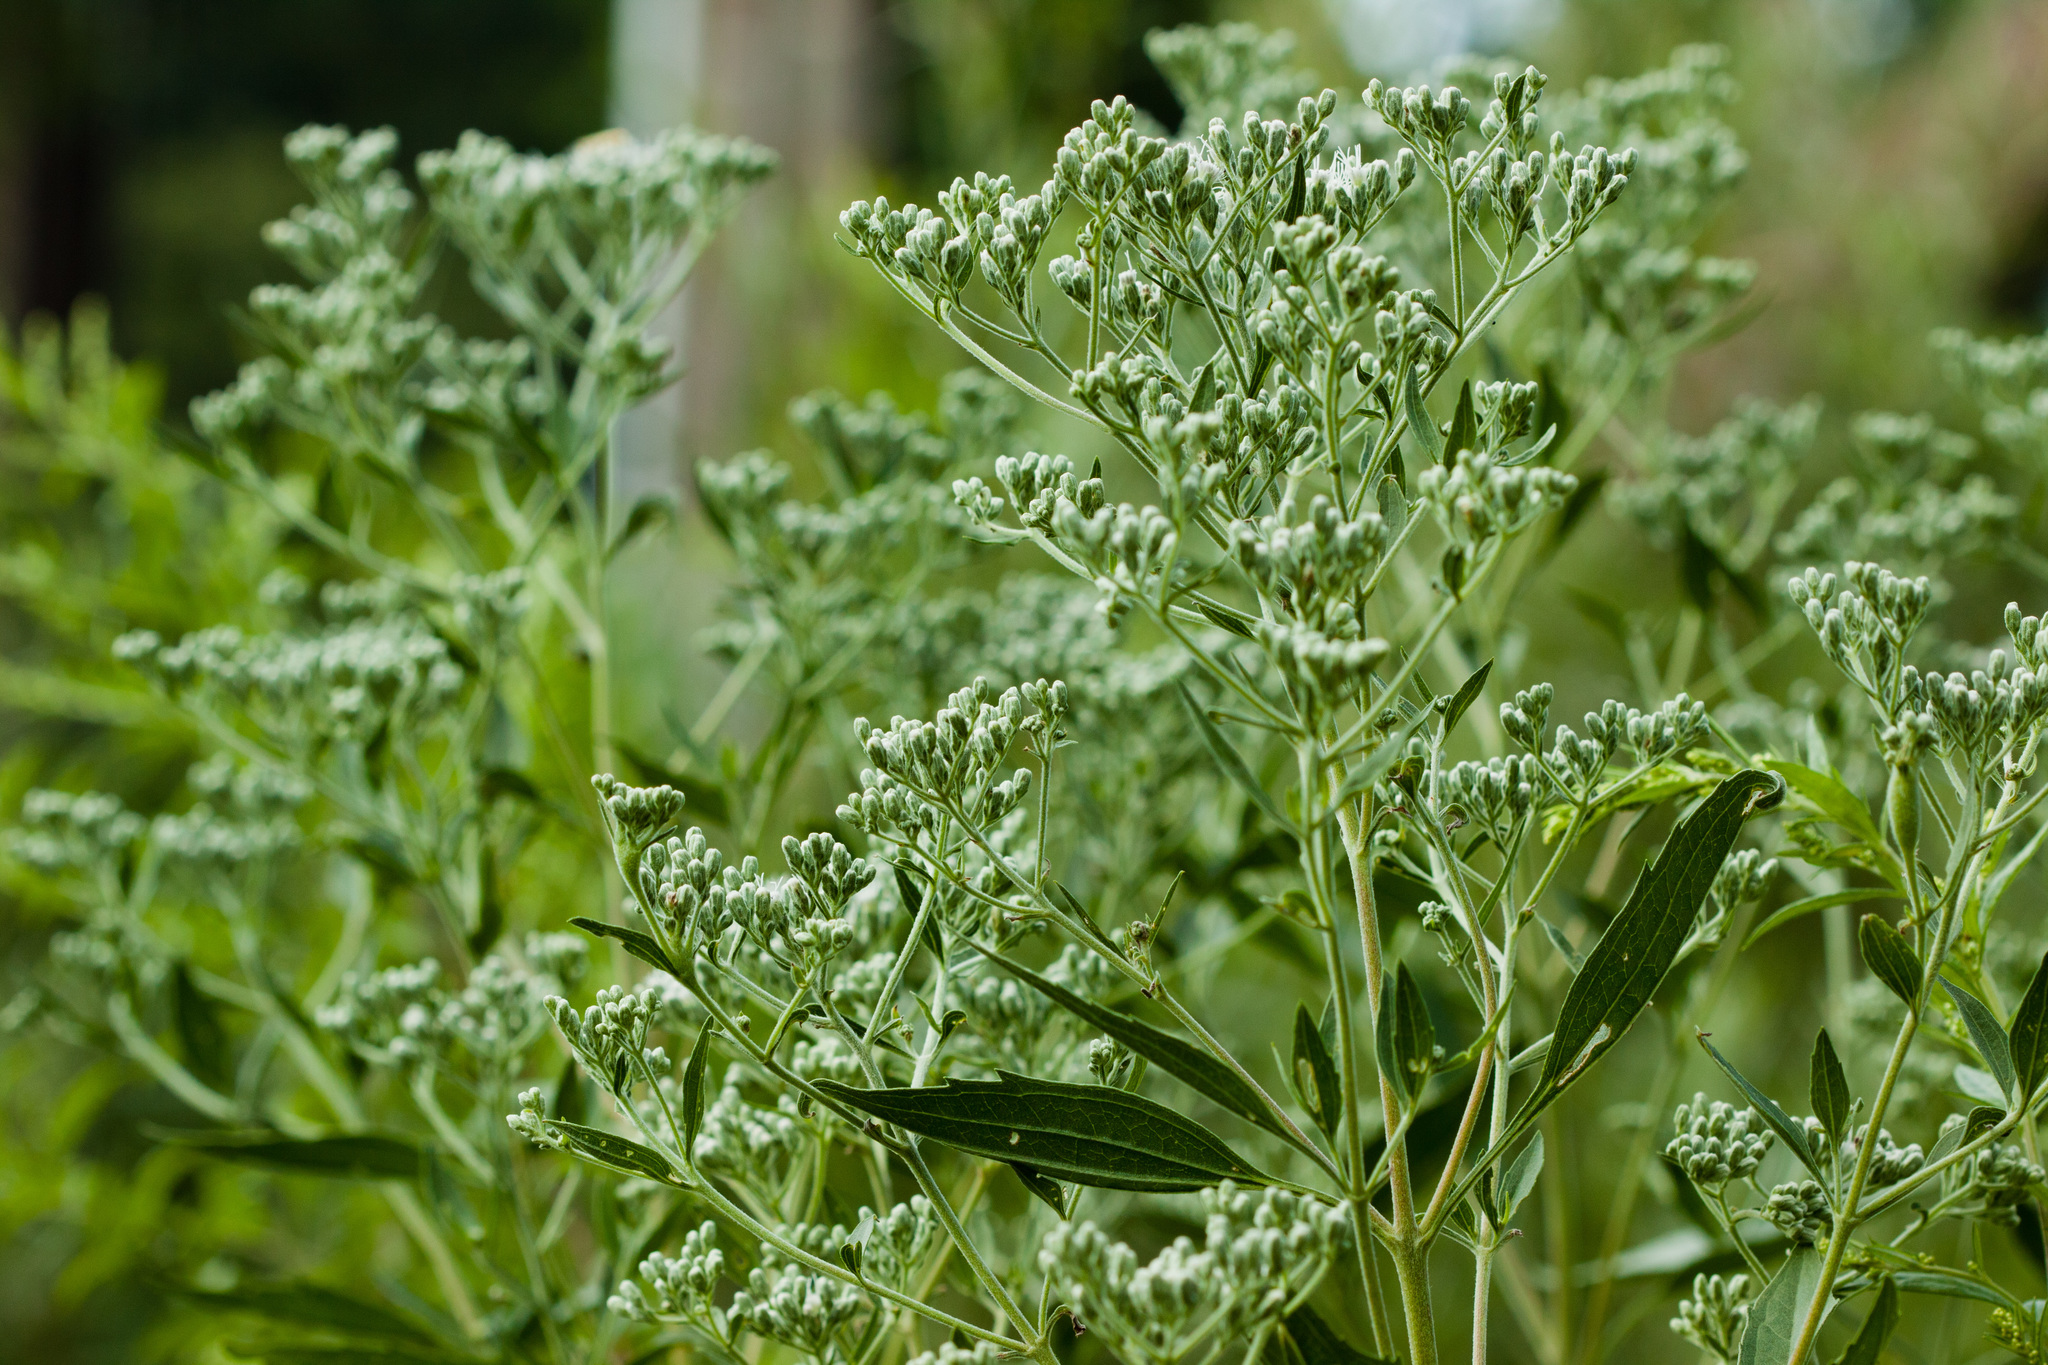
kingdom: Plantae
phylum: Tracheophyta
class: Magnoliopsida
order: Asterales
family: Asteraceae
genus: Eupatorium
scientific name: Eupatorium altissimum
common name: Tall thoroughwort
